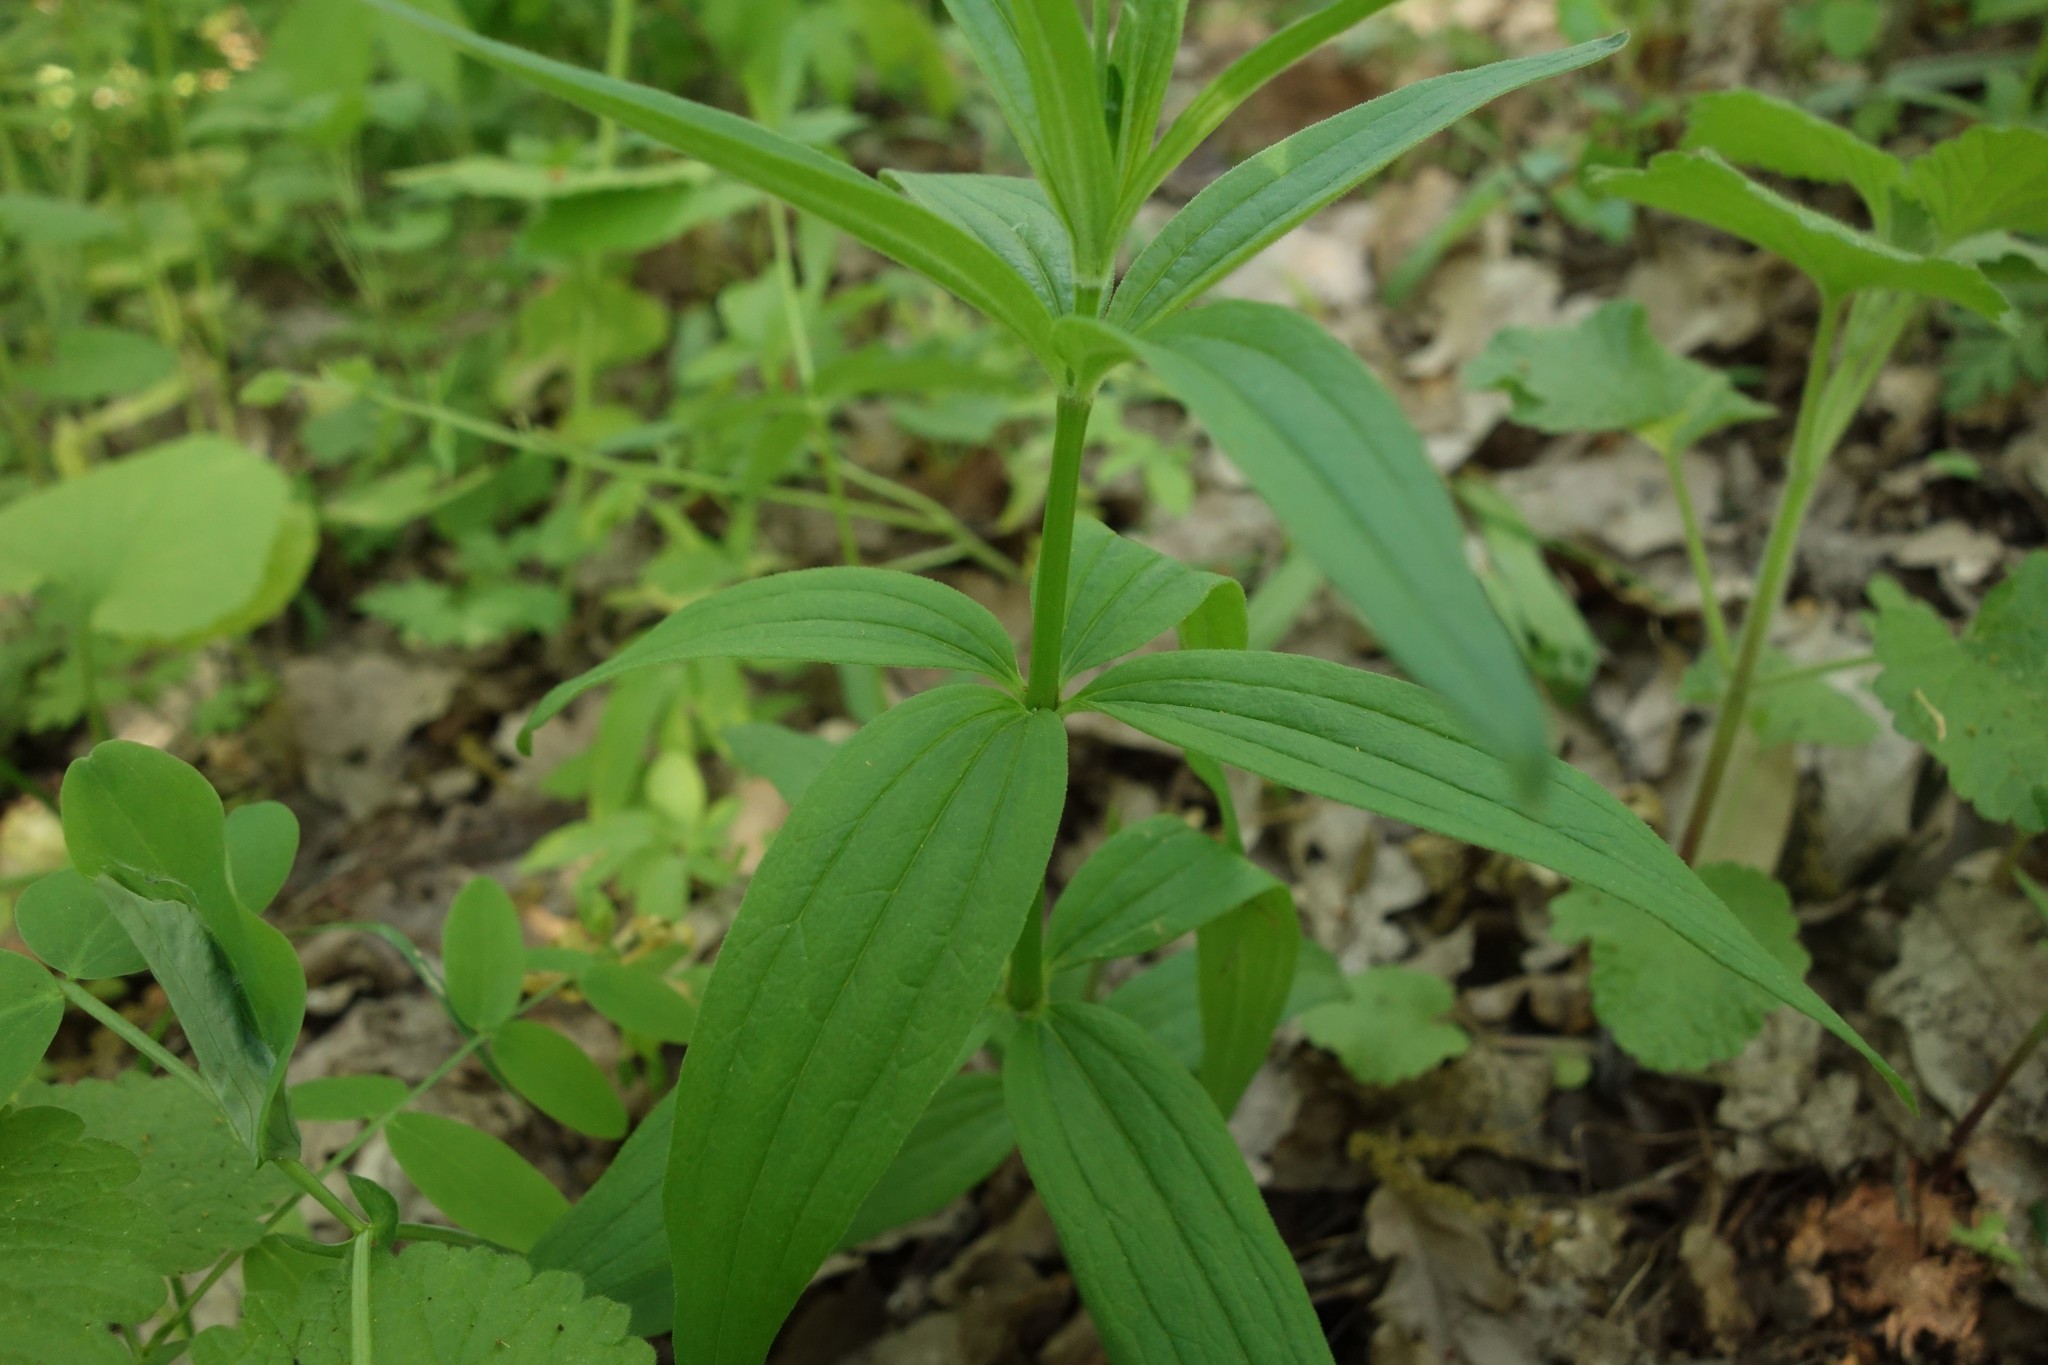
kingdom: Plantae
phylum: Tracheophyta
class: Magnoliopsida
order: Gentianales
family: Rubiaceae
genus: Galium
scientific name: Galium rubioides
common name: European bedstraw
